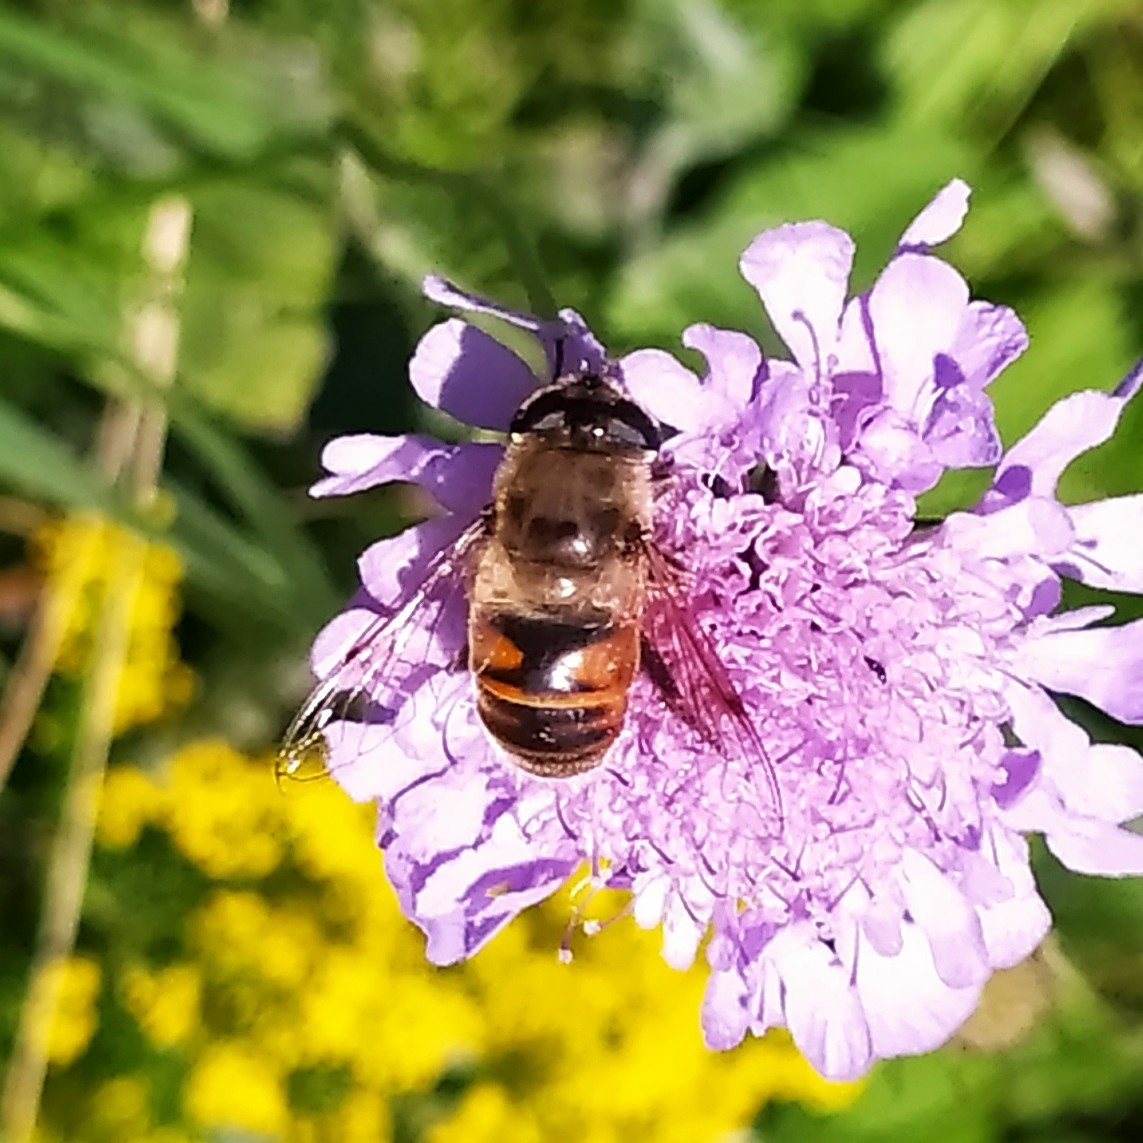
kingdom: Animalia
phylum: Arthropoda
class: Insecta
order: Diptera
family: Syrphidae
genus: Eristalis
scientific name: Eristalis tenax
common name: Drone fly
